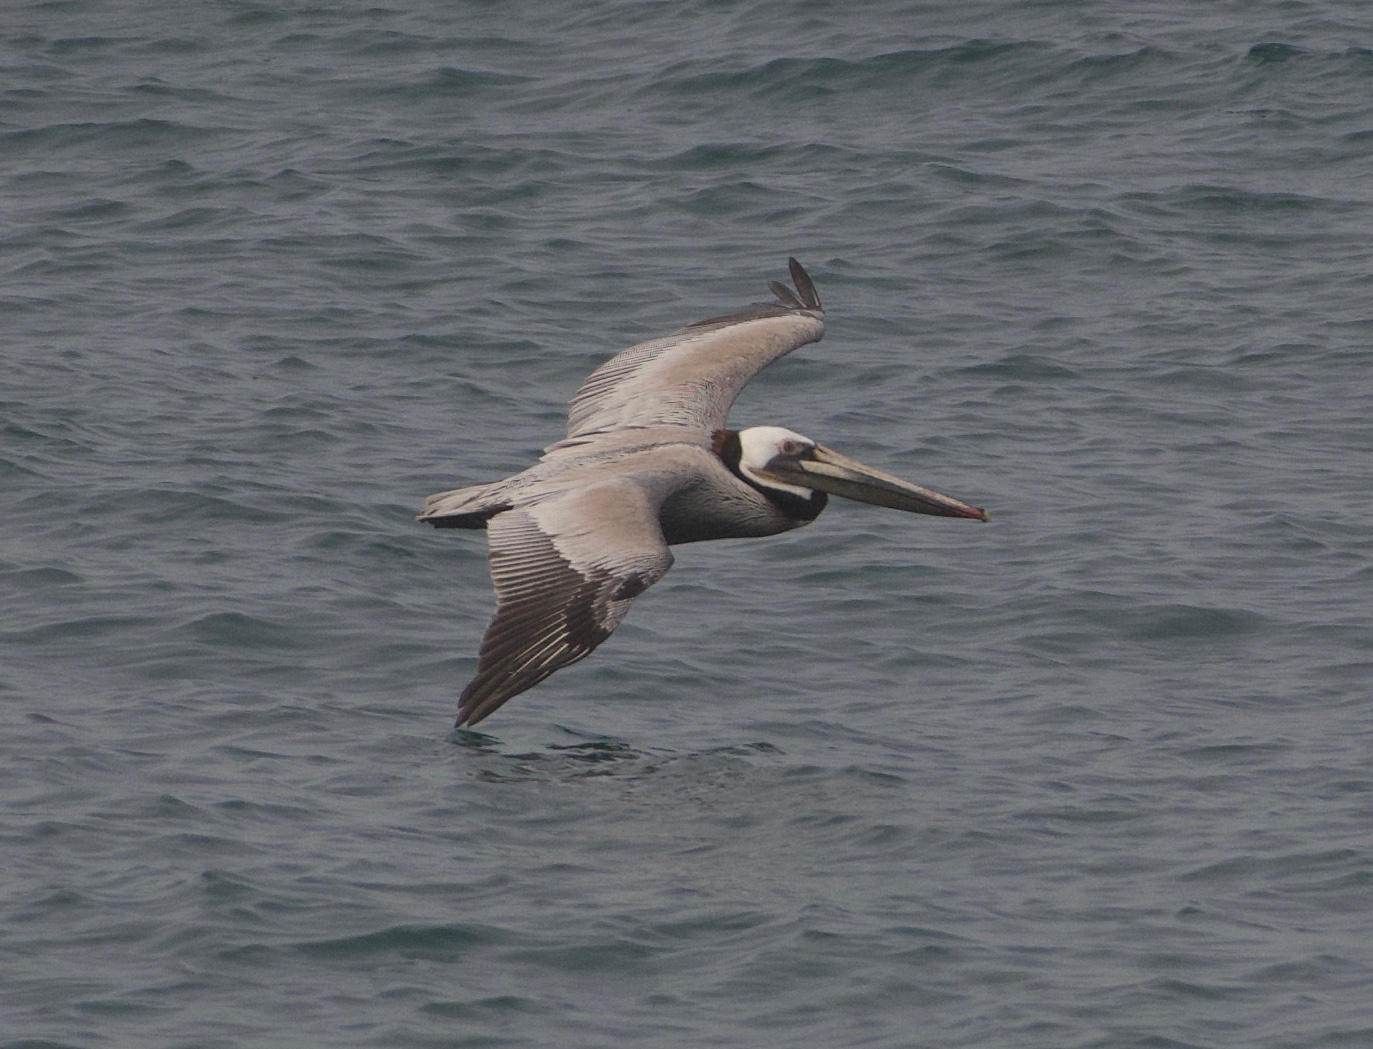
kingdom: Animalia
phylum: Chordata
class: Aves
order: Pelecaniformes
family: Pelecanidae
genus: Pelecanus
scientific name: Pelecanus occidentalis
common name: Brown pelican
